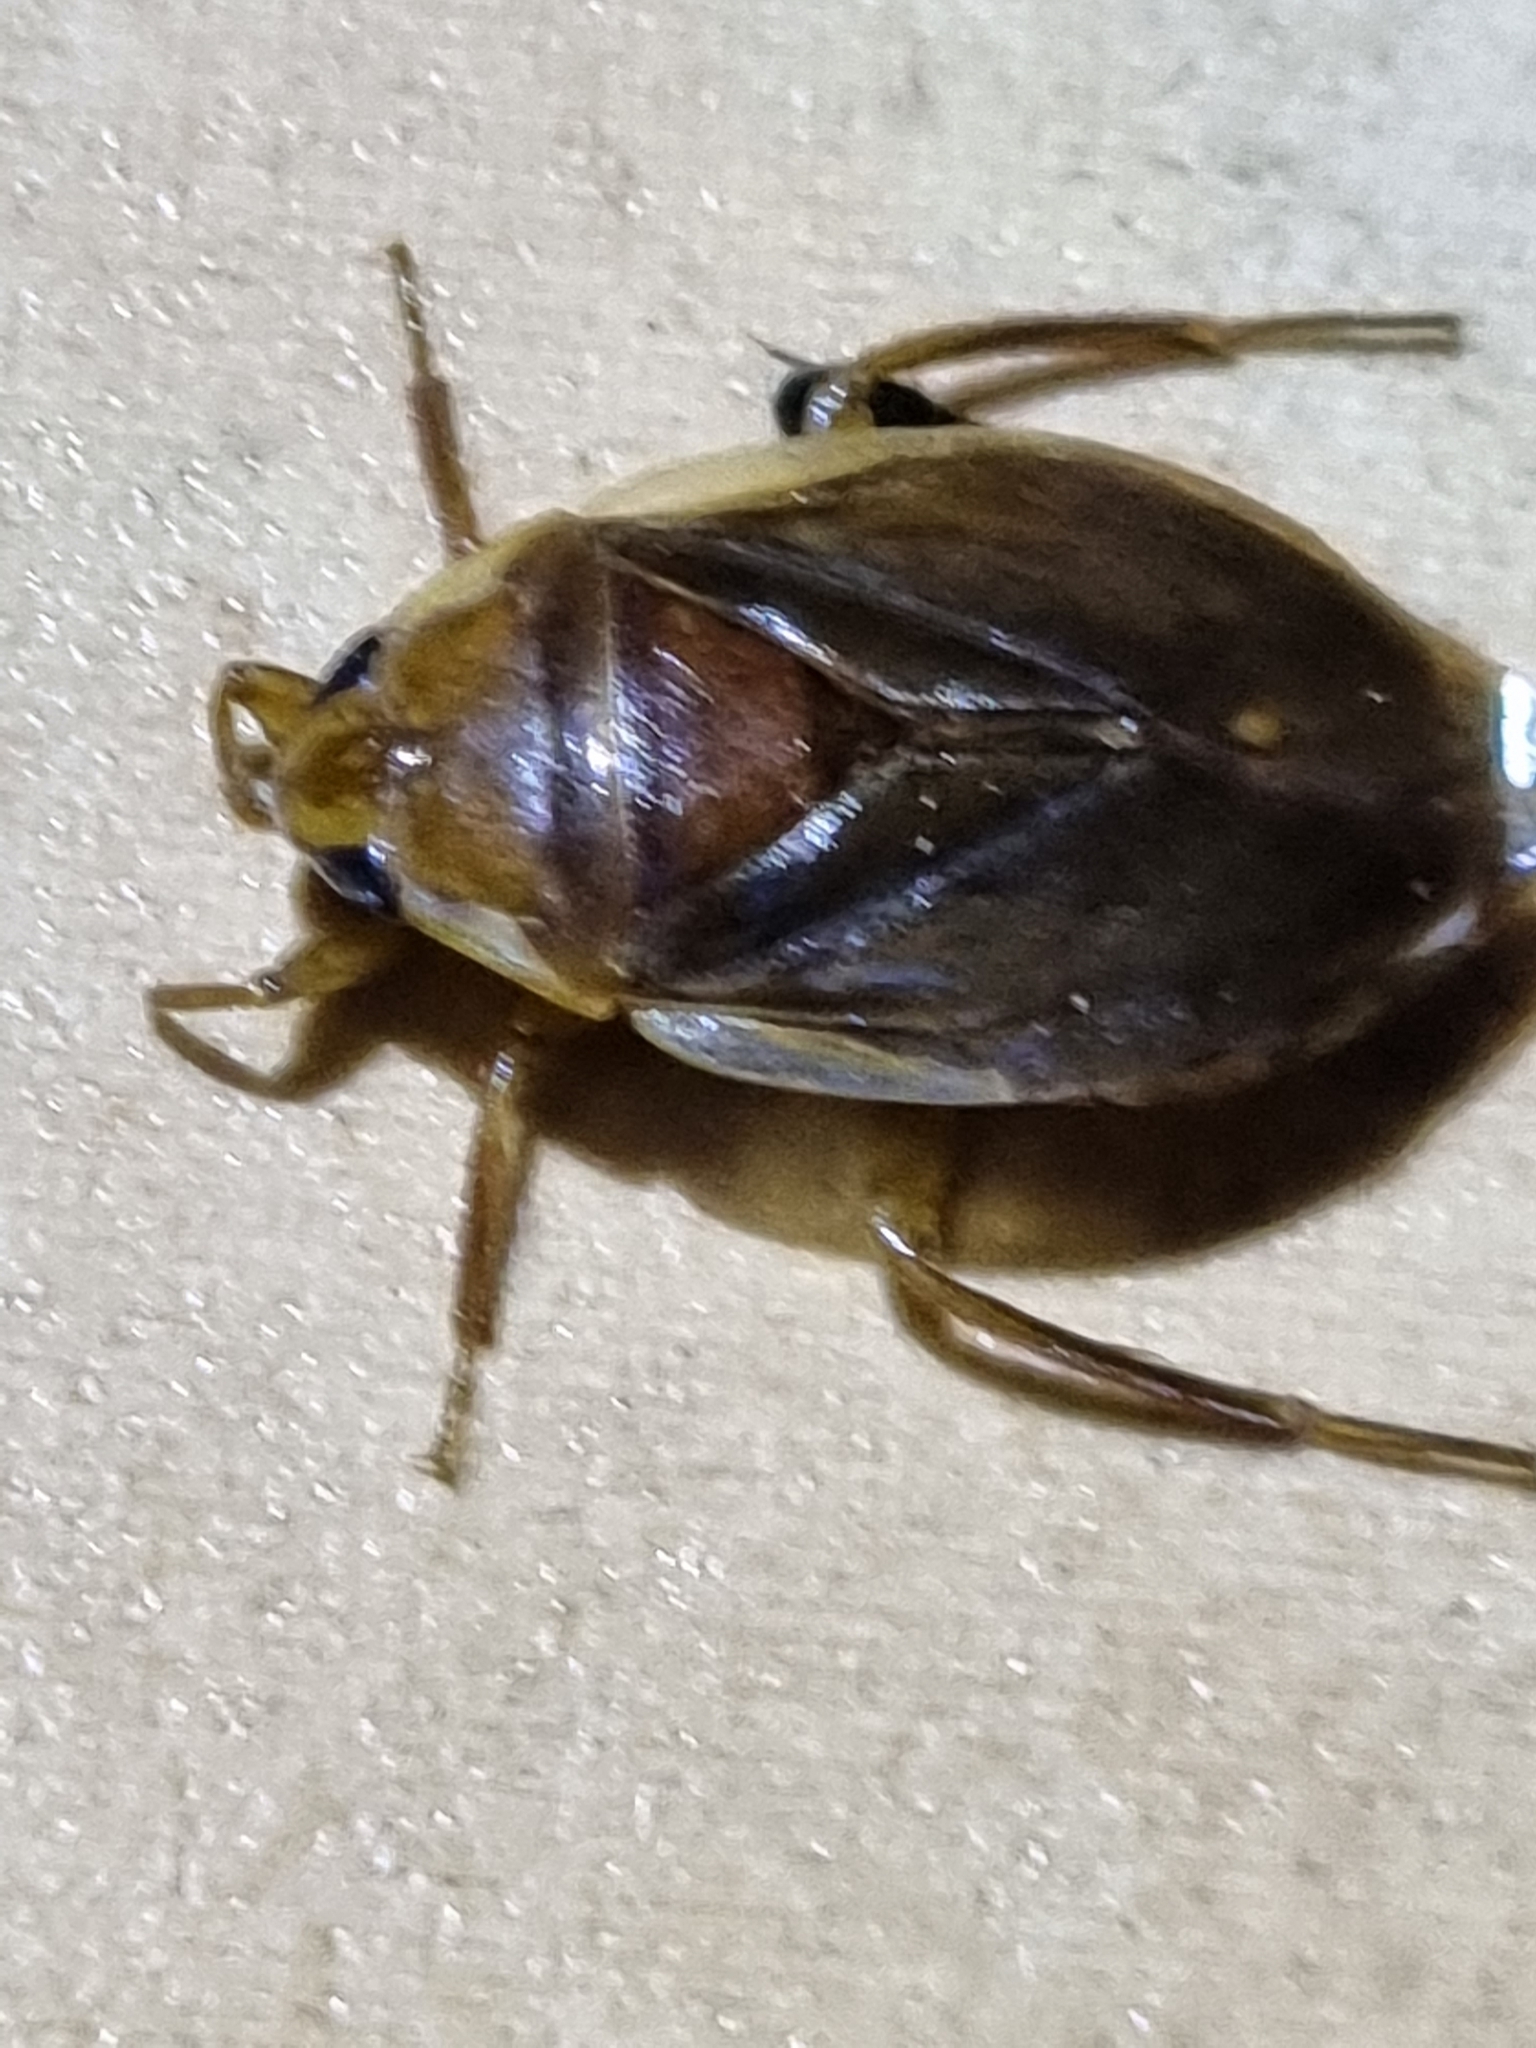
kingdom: Animalia
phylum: Arthropoda
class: Insecta
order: Hemiptera
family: Belostomatidae
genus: Diplonychus
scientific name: Diplonychus eques
